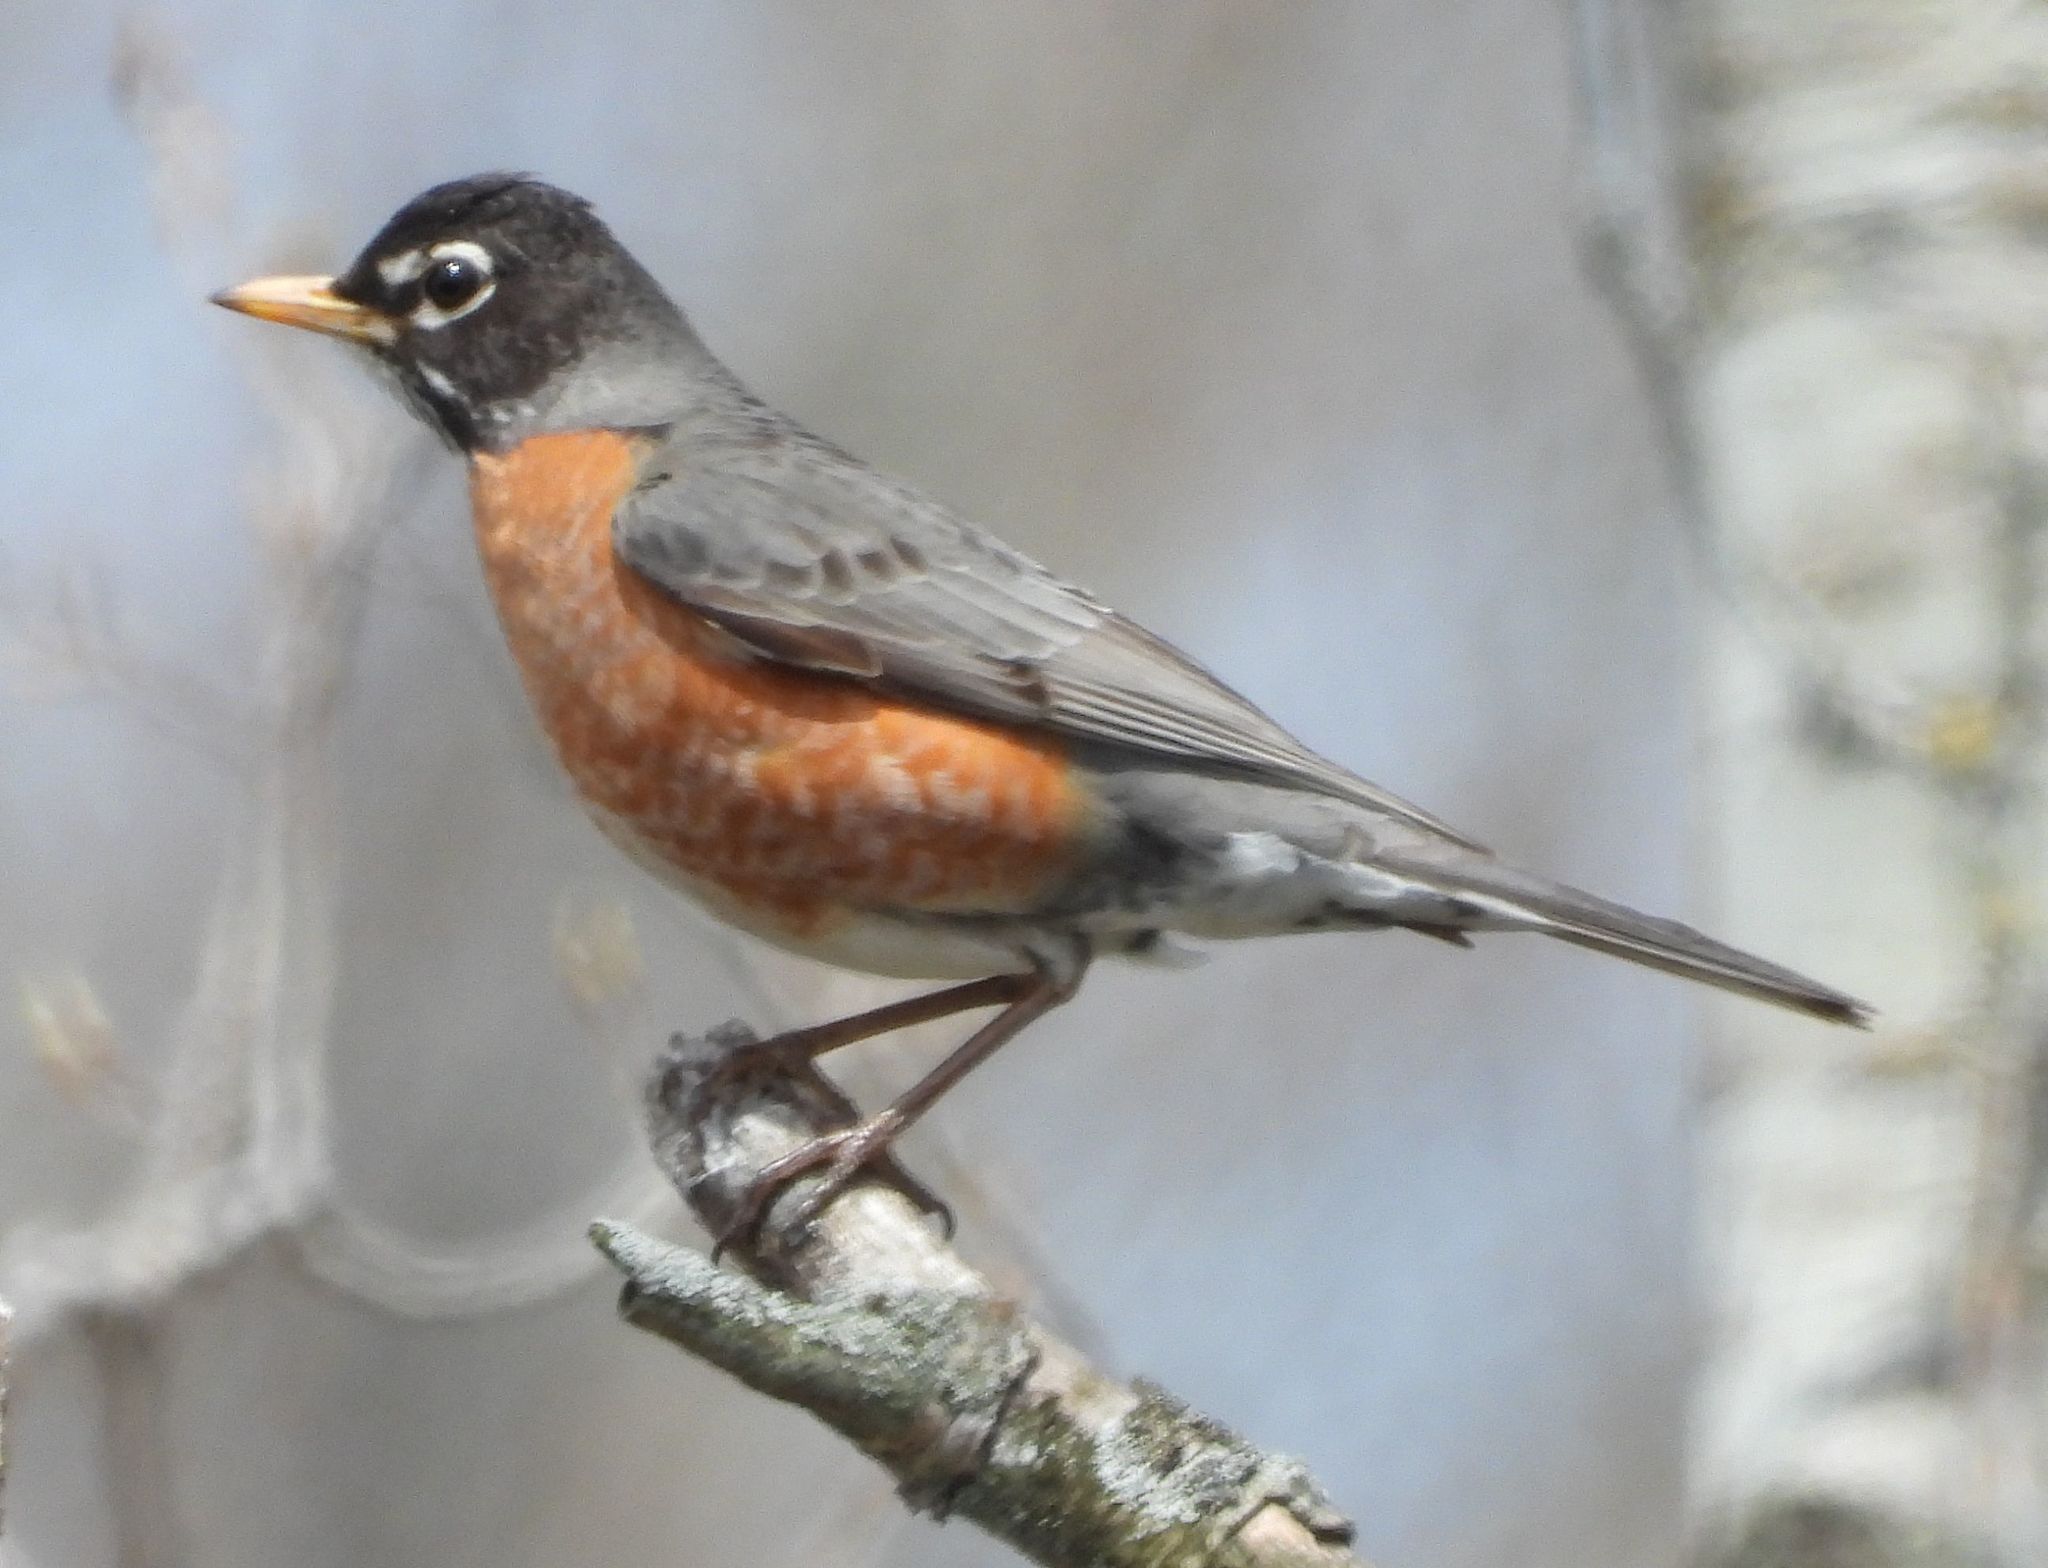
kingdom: Animalia
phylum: Chordata
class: Aves
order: Passeriformes
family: Turdidae
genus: Turdus
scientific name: Turdus migratorius
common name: American robin
